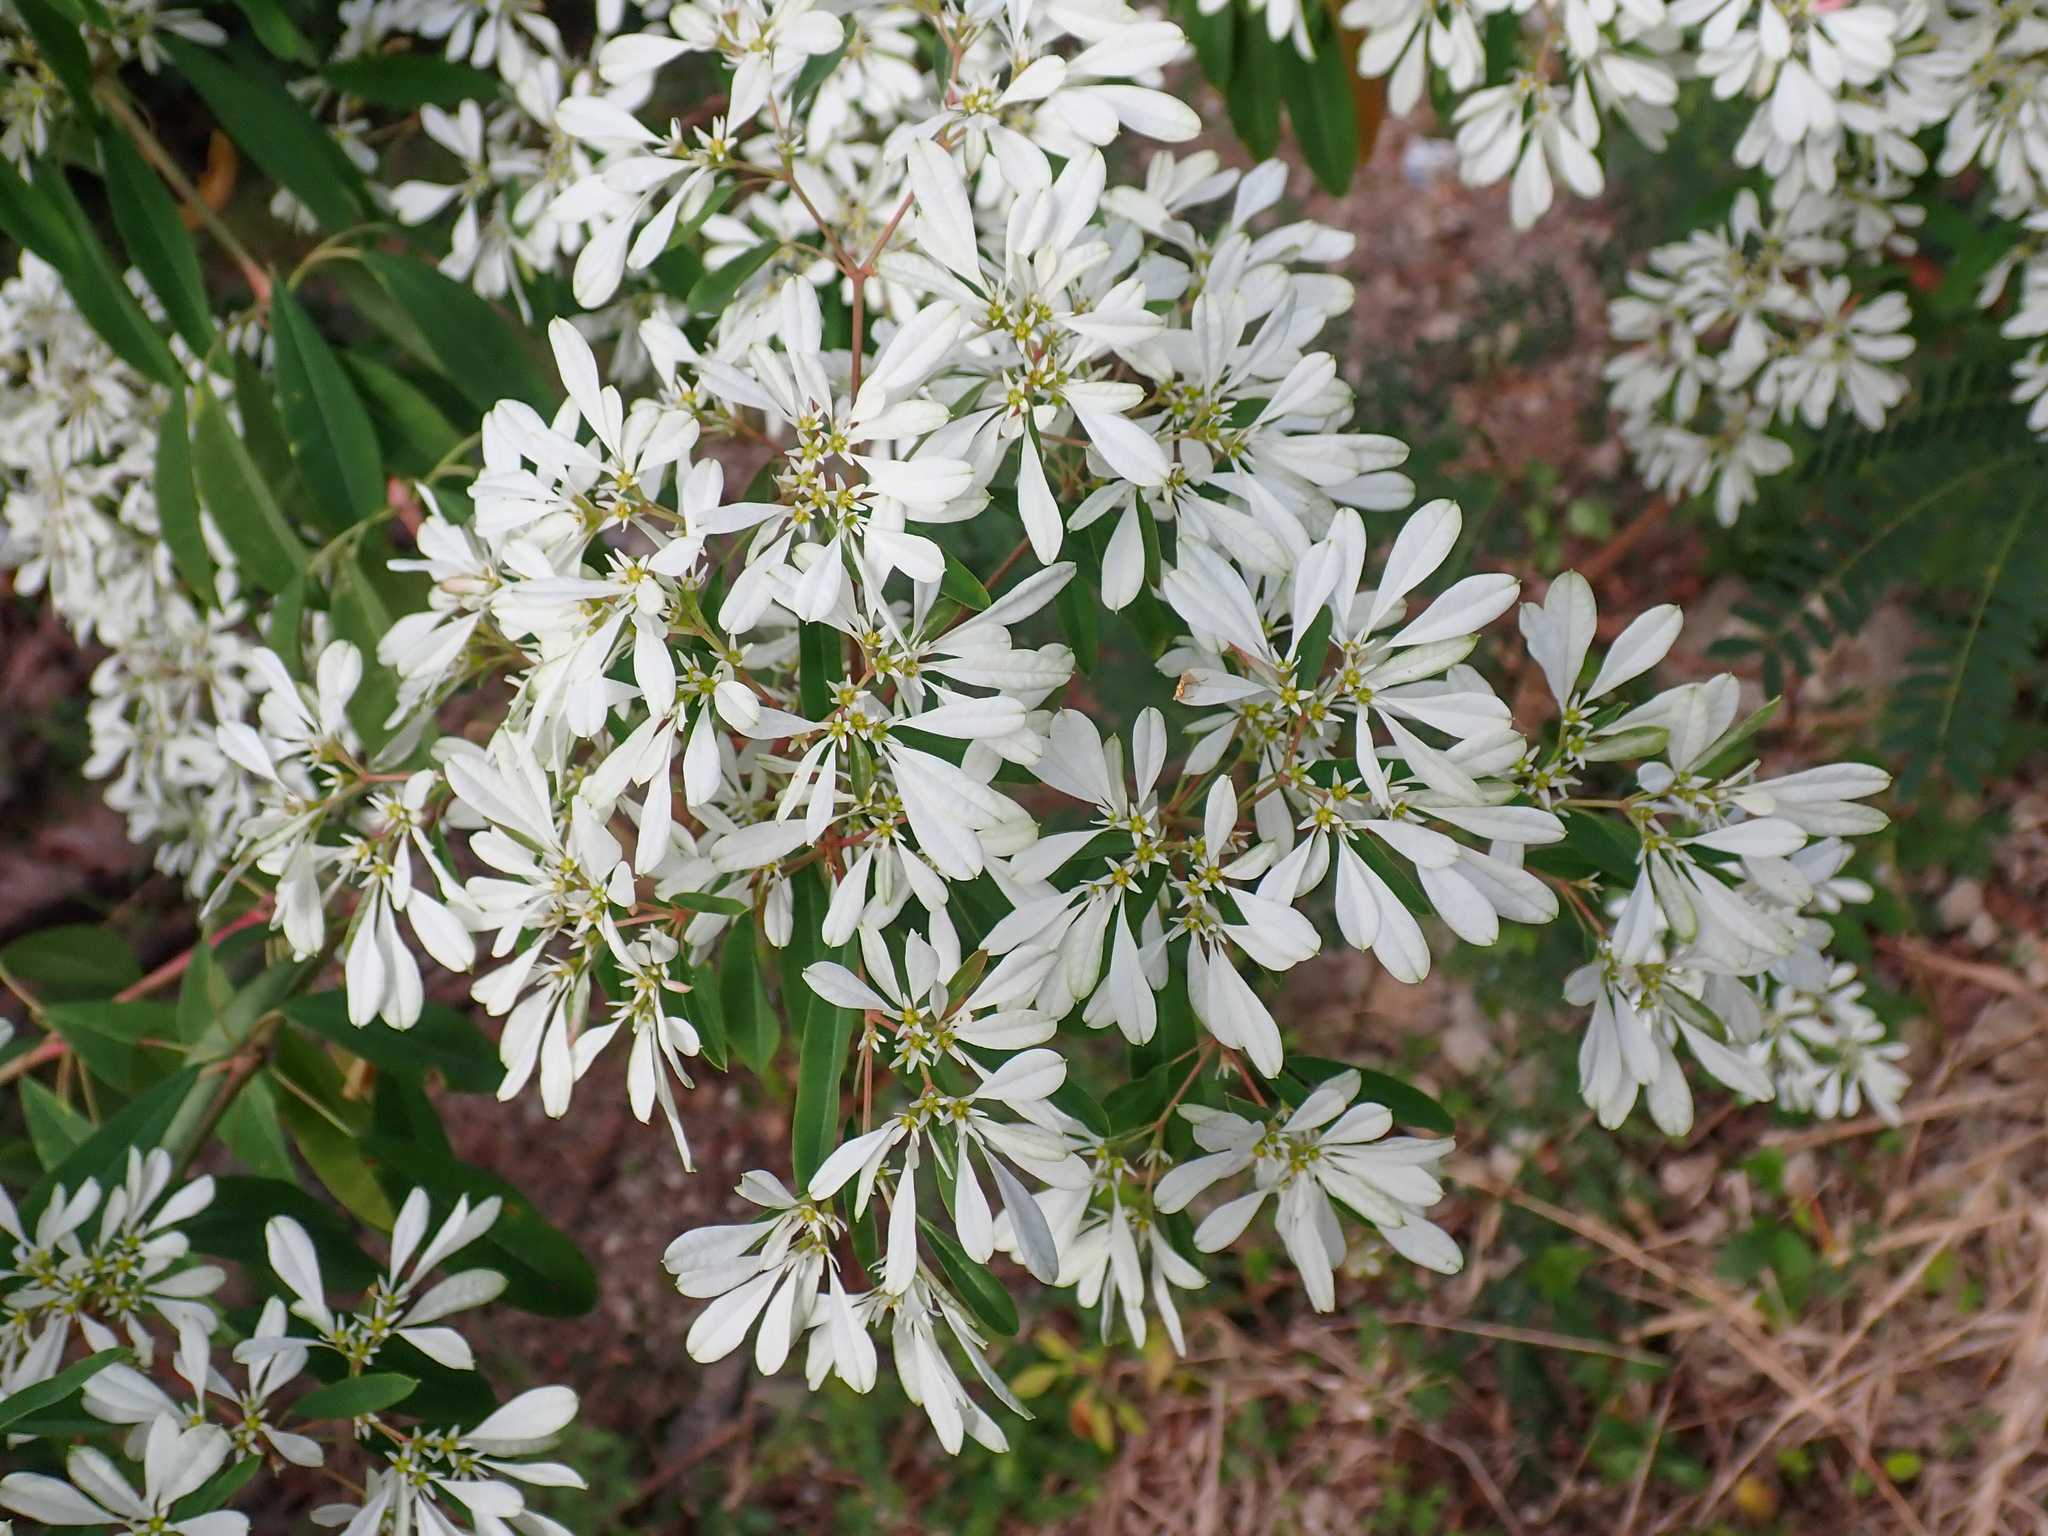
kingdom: Plantae
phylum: Tracheophyta
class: Magnoliopsida
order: Malpighiales
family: Euphorbiaceae
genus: Euphorbia
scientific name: Euphorbia leucocephala
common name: Pascuita
